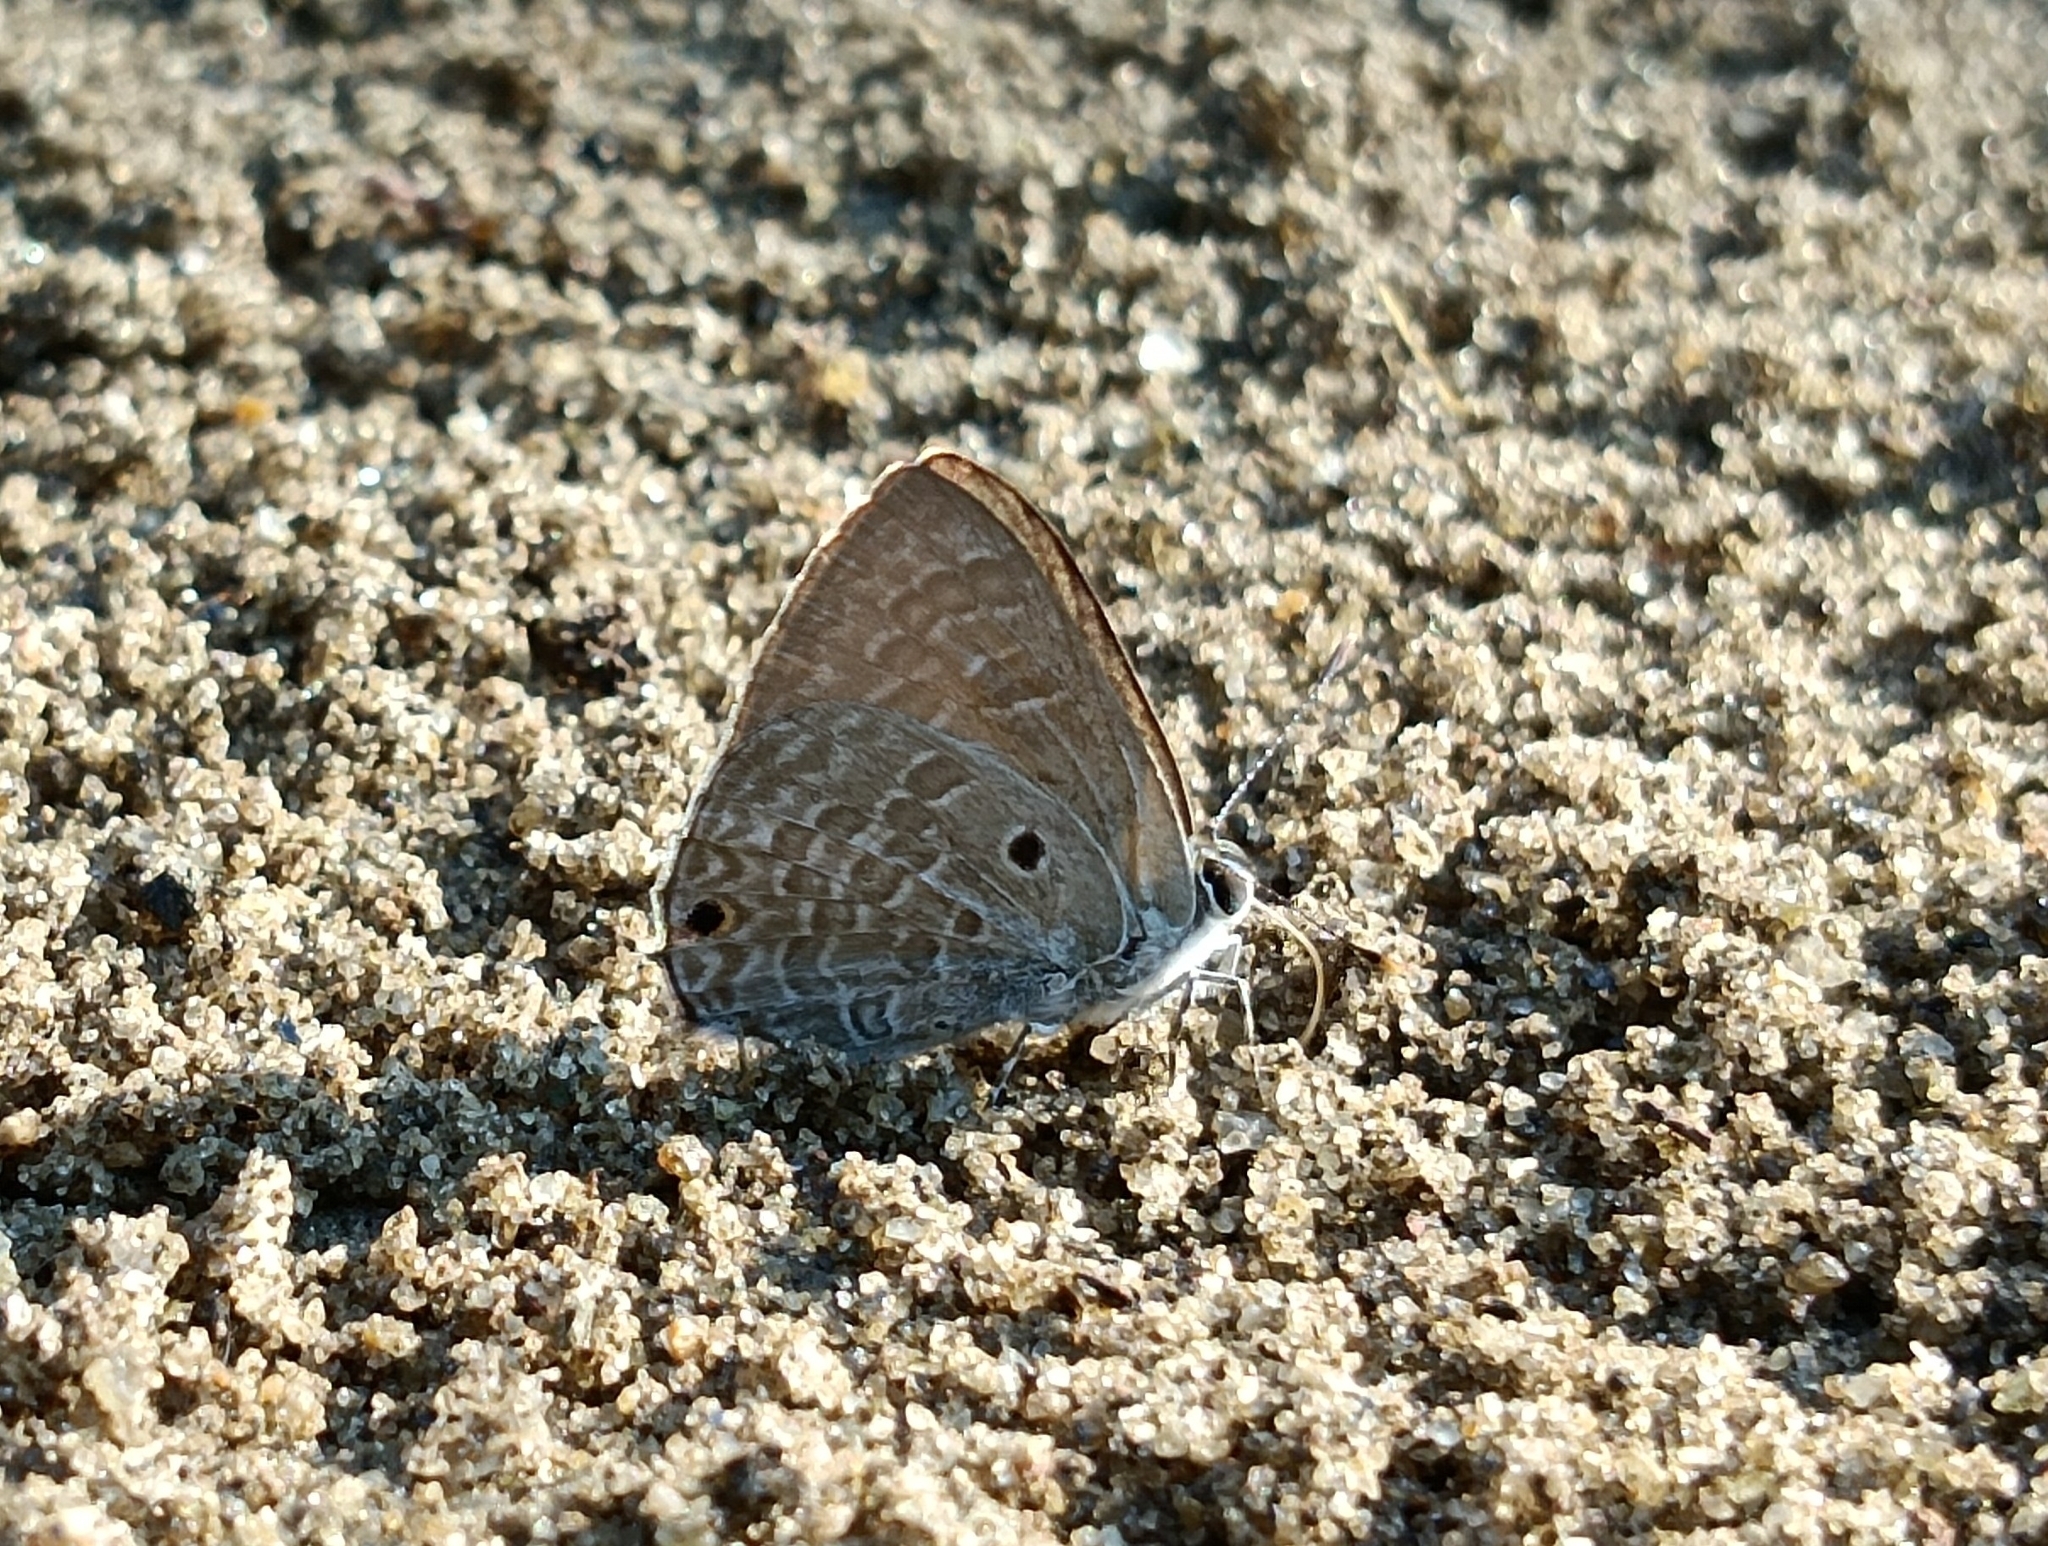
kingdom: Animalia
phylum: Arthropoda
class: Insecta
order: Lepidoptera
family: Lycaenidae
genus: Anthene
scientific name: Anthene lycaenina
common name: Pointed ciliate blue
